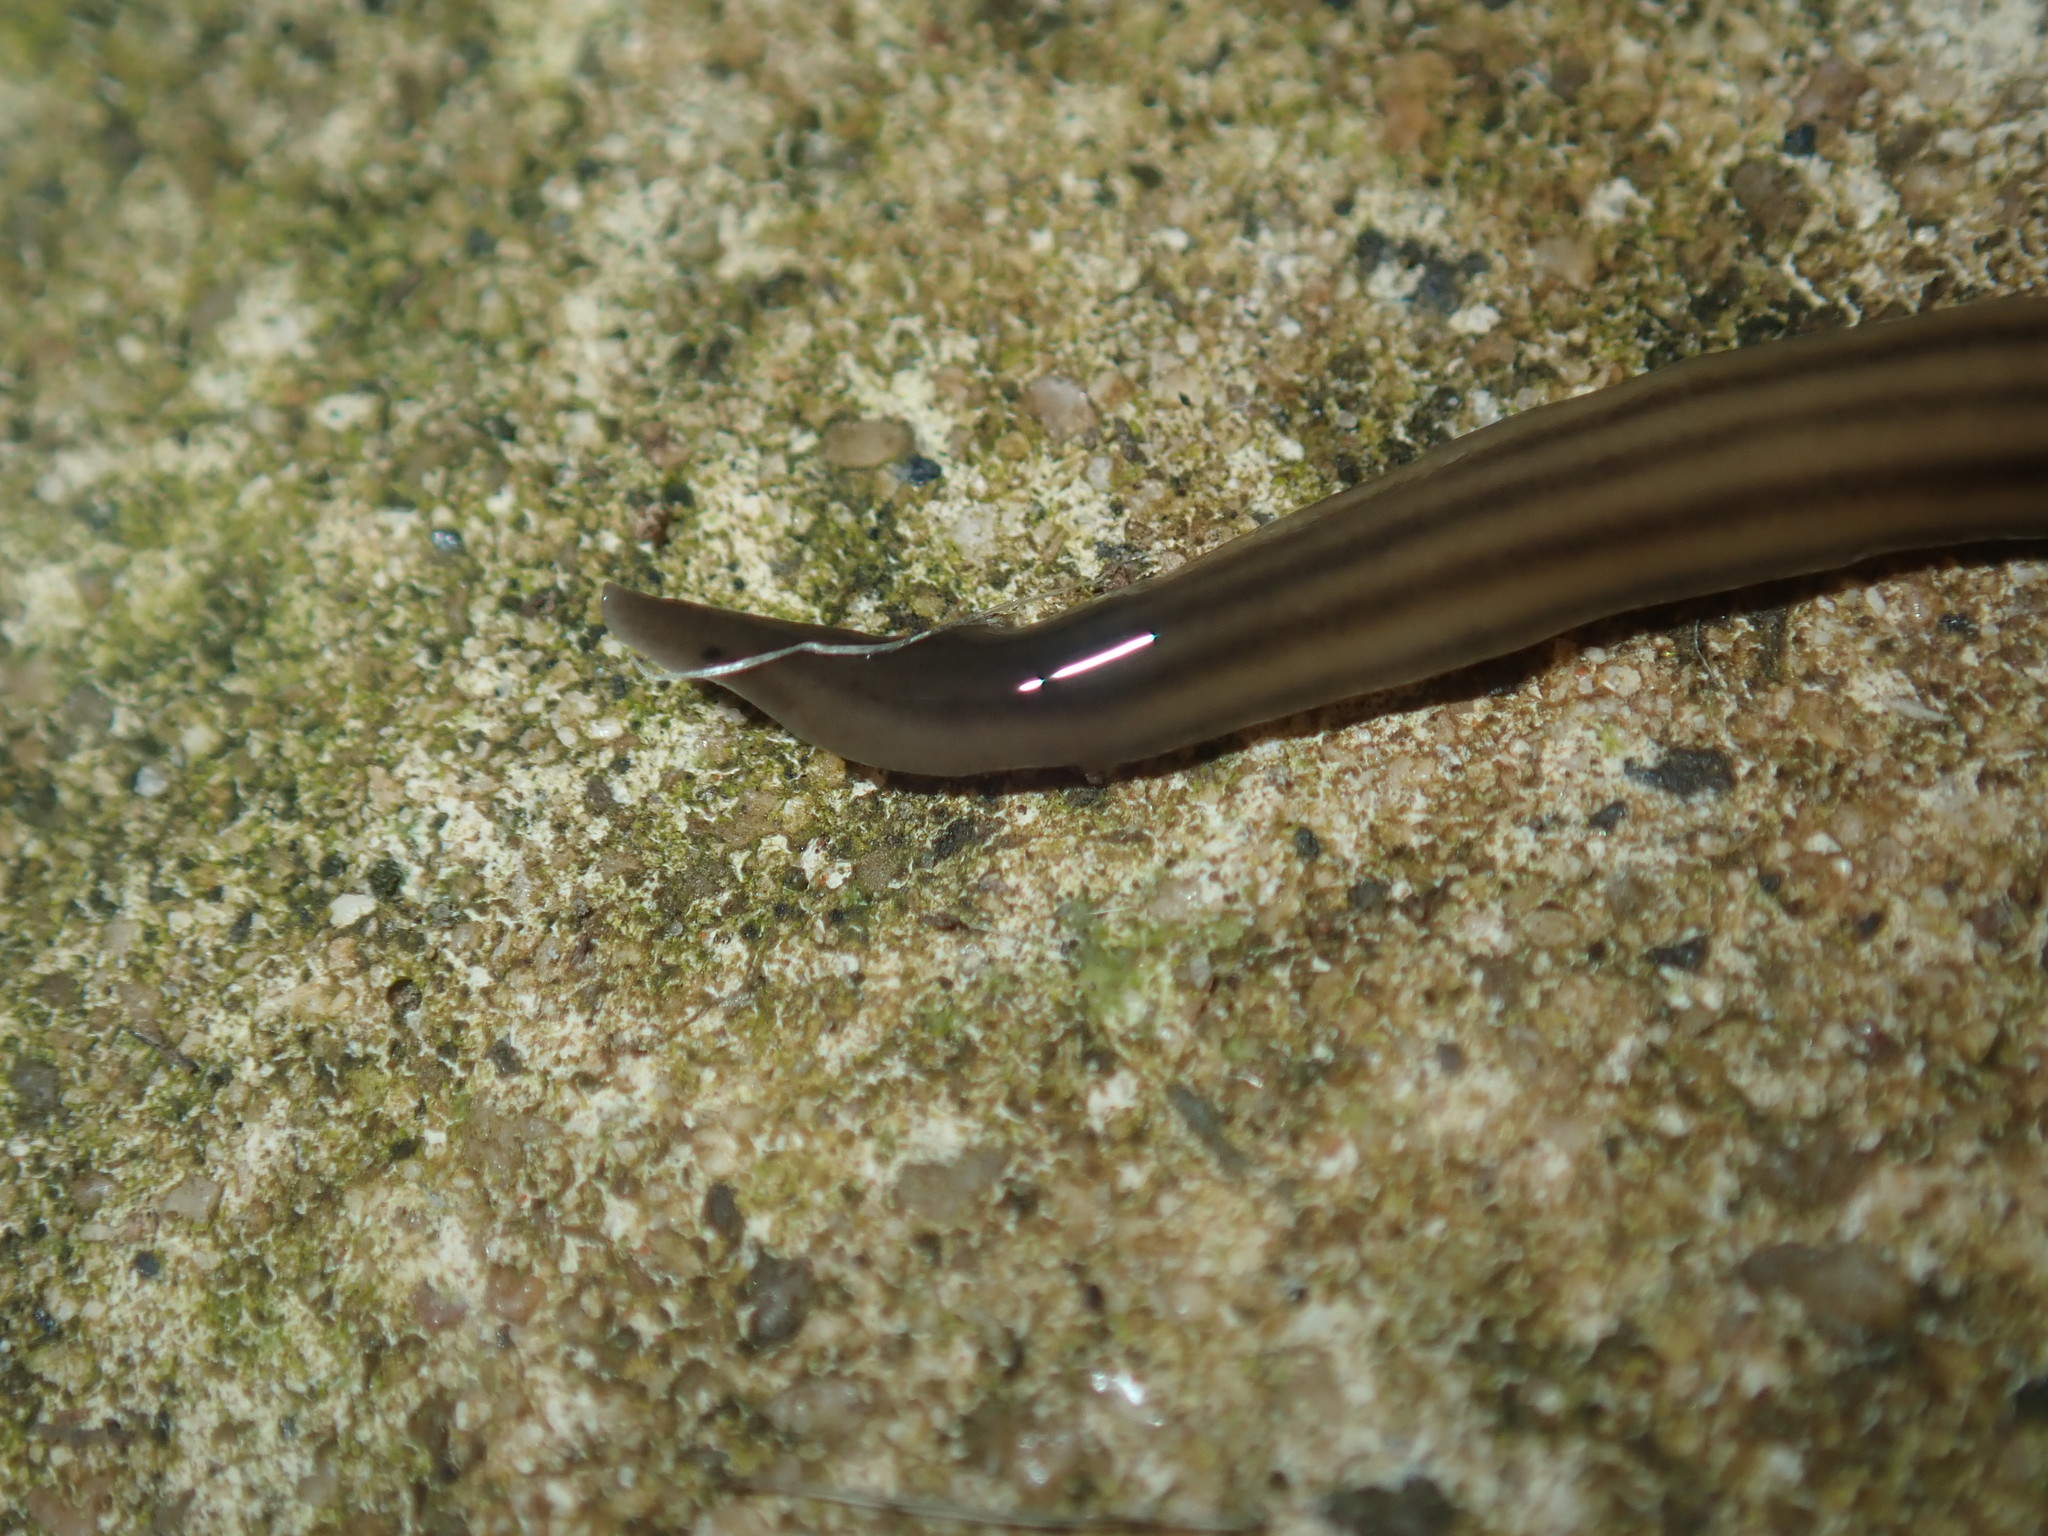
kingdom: Animalia
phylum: Platyhelminthes
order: Tricladida
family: Geoplanidae
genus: Dolichoplana
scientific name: Dolichoplana carvalhoi
